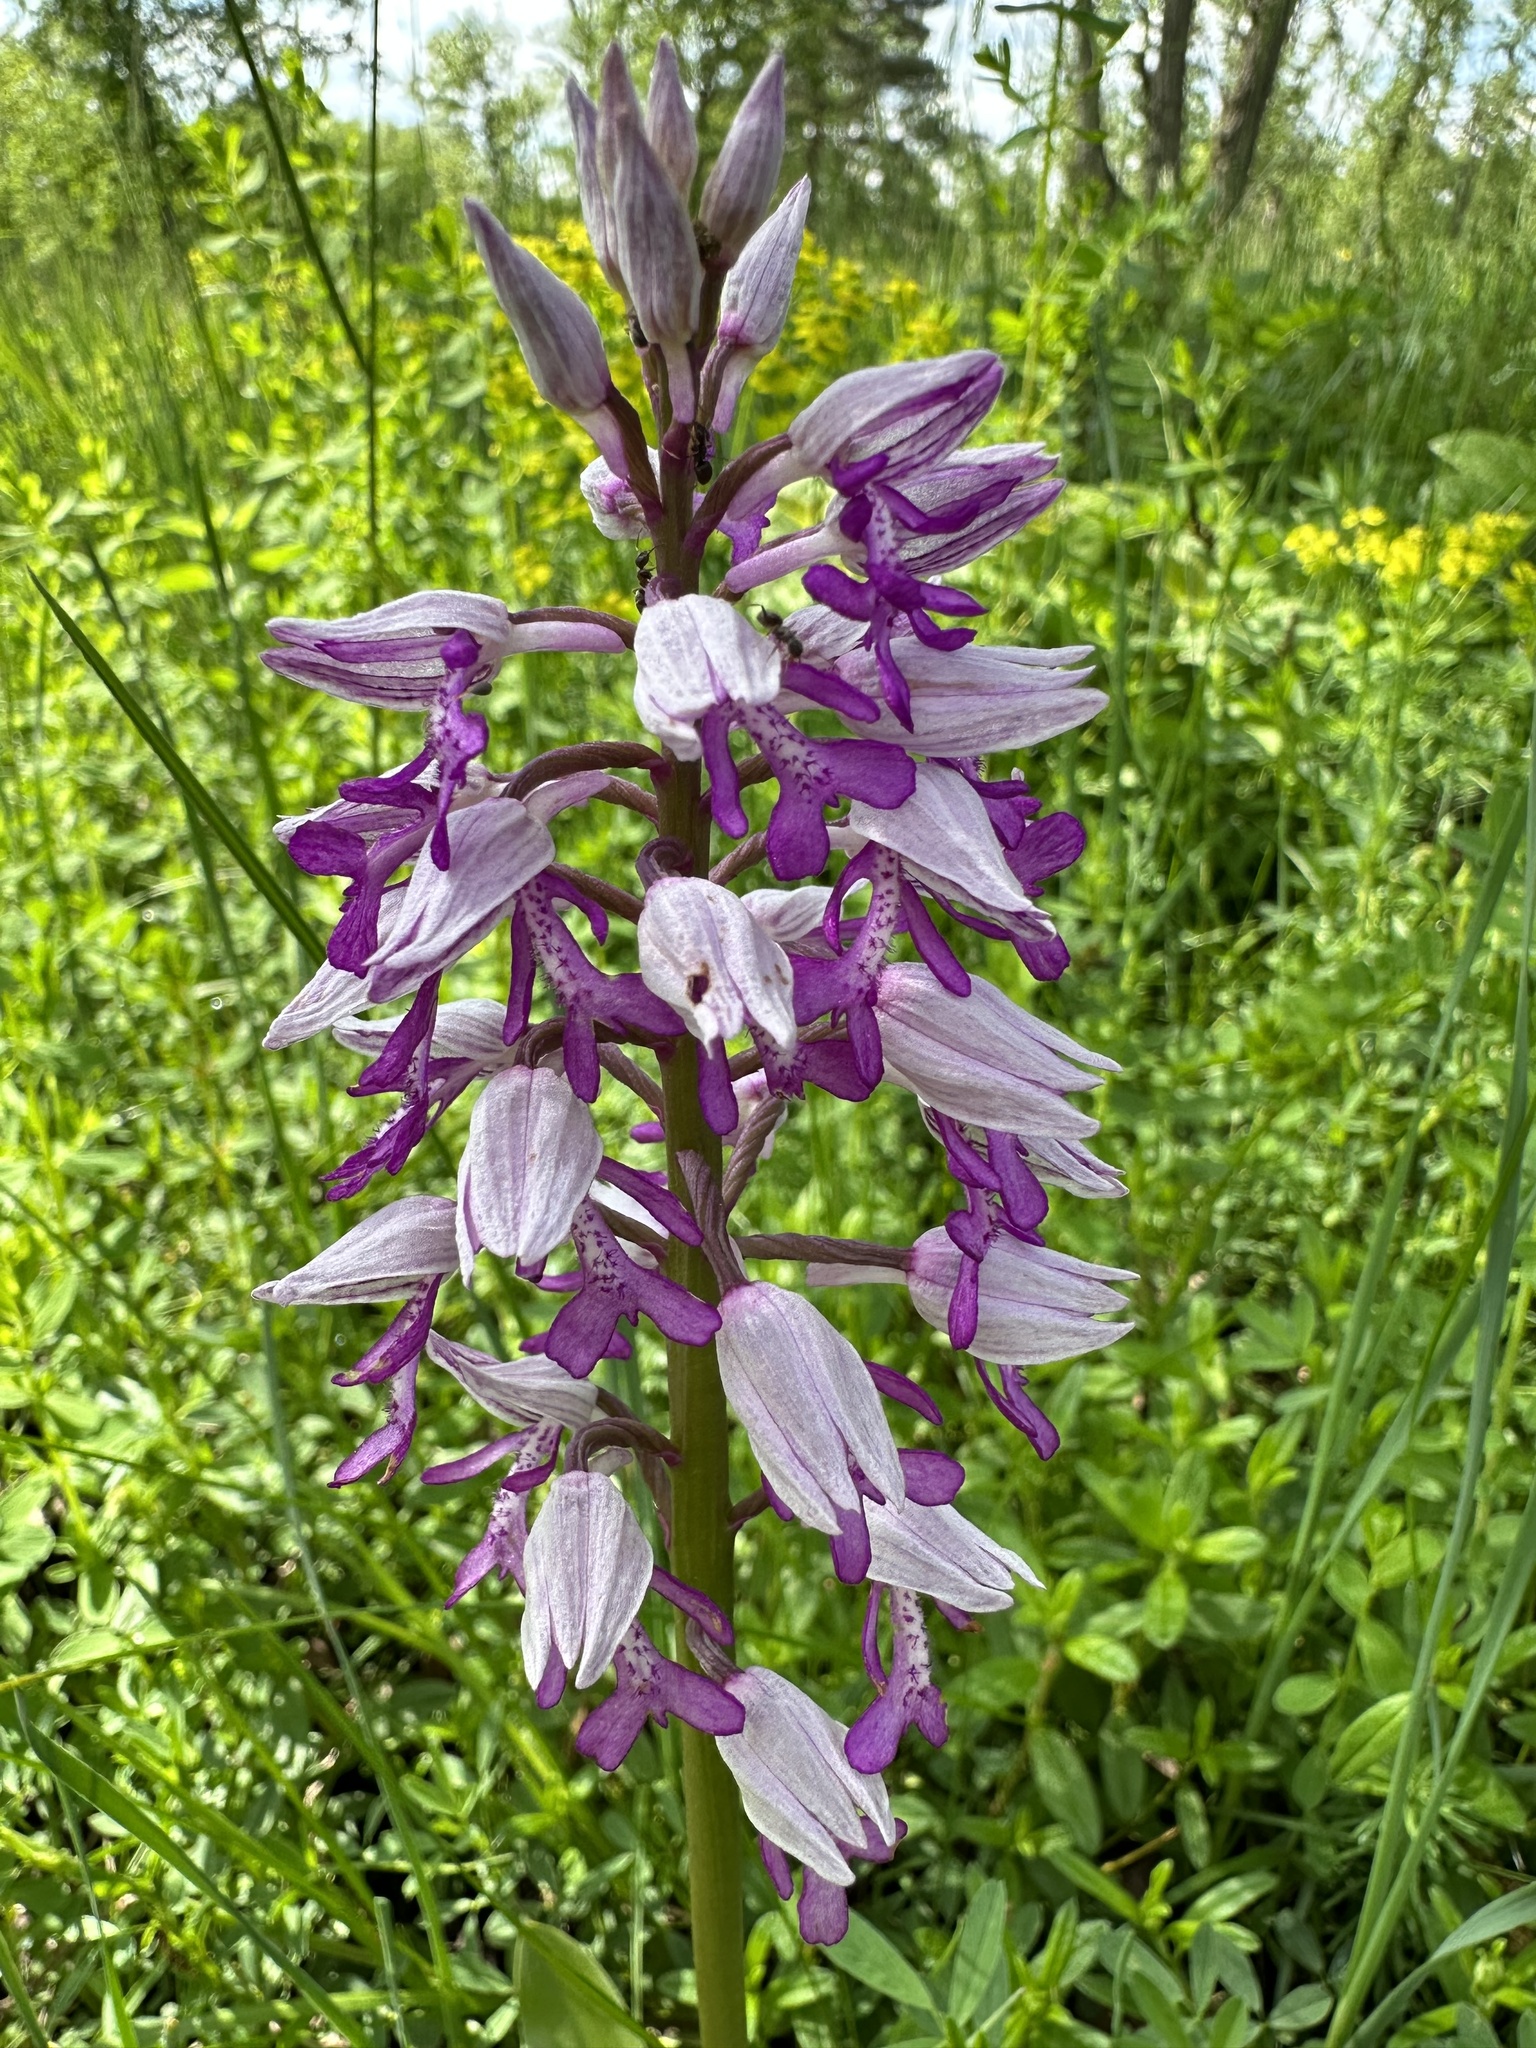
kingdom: Plantae
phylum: Tracheophyta
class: Liliopsida
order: Asparagales
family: Orchidaceae
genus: Orchis
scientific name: Orchis militaris
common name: Military orchid
